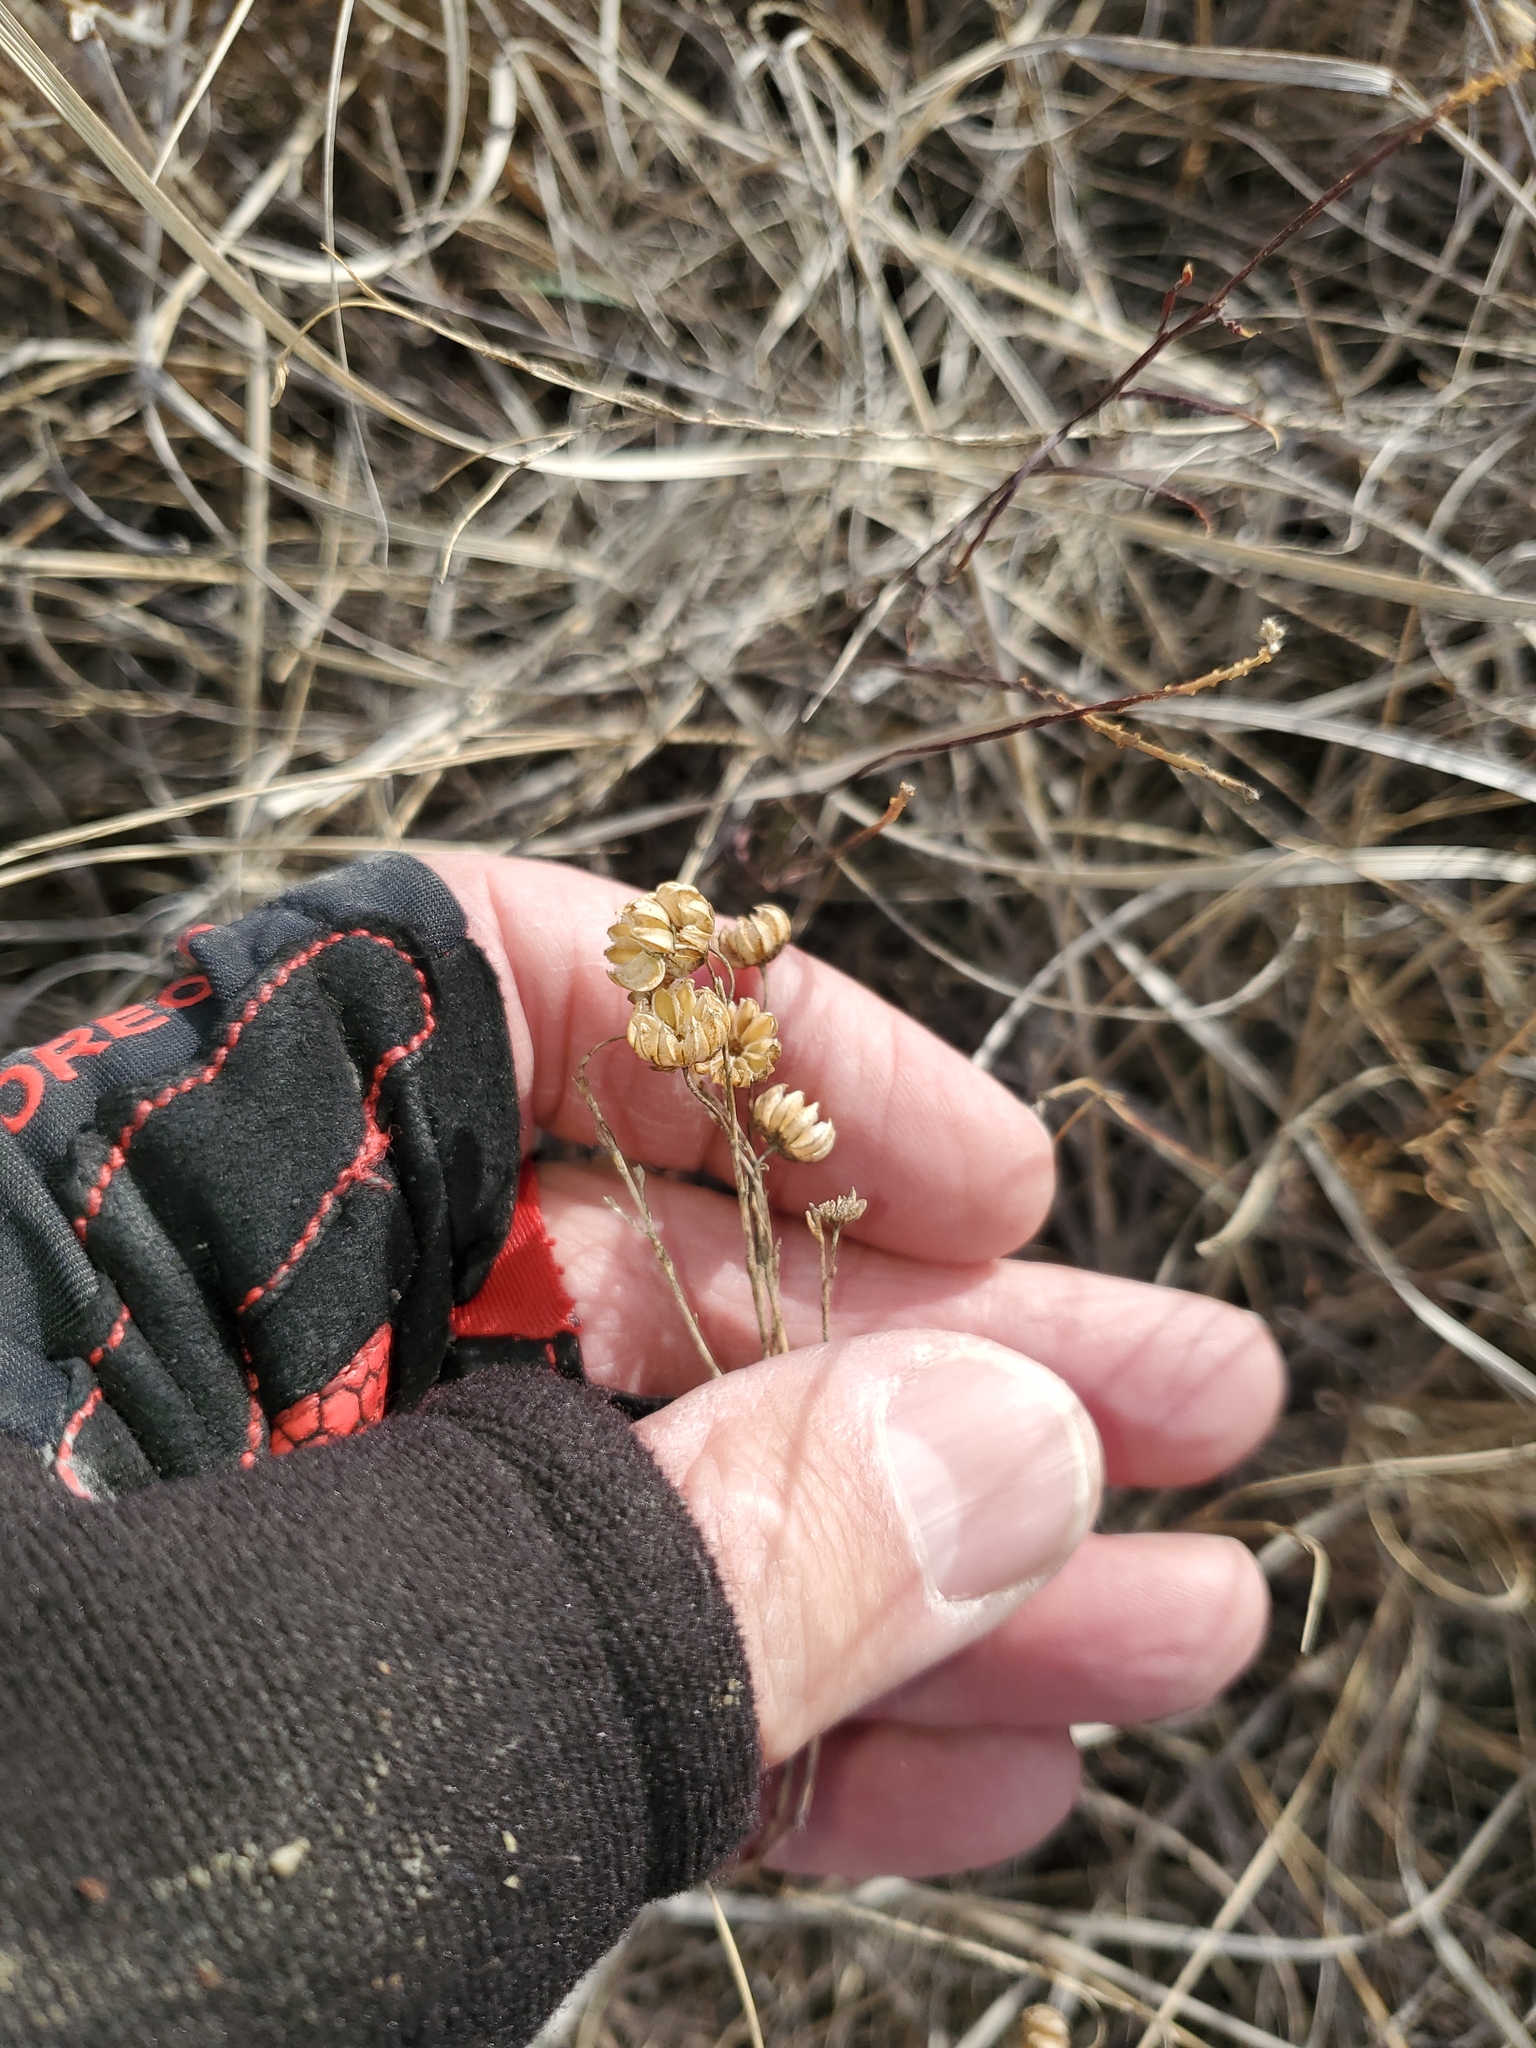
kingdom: Plantae
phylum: Tracheophyta
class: Magnoliopsida
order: Malpighiales
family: Linaceae
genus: Linum
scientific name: Linum lewisii
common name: Prairie flax
